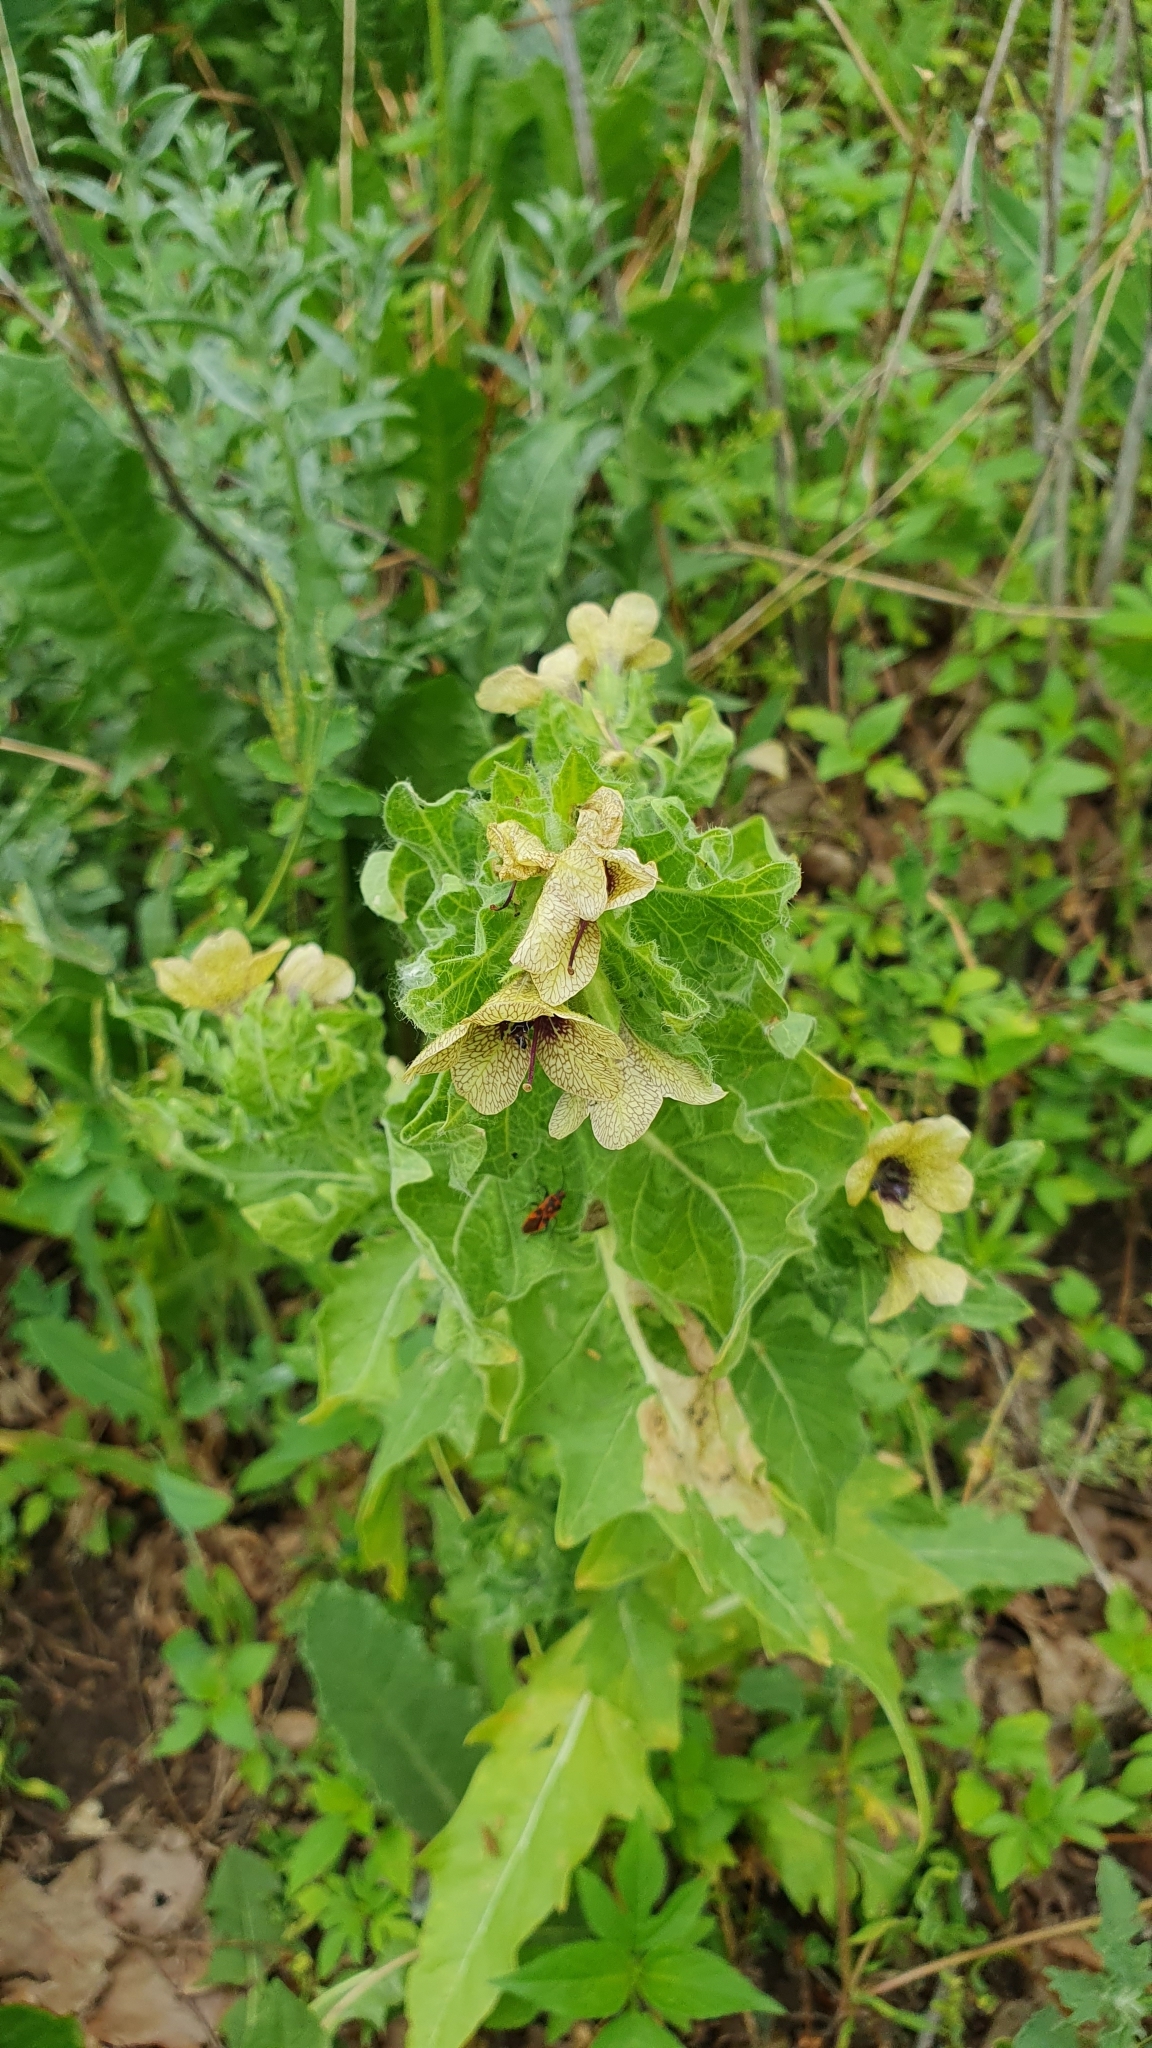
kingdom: Plantae
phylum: Tracheophyta
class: Magnoliopsida
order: Solanales
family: Solanaceae
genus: Hyoscyamus
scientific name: Hyoscyamus niger
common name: Henbane
